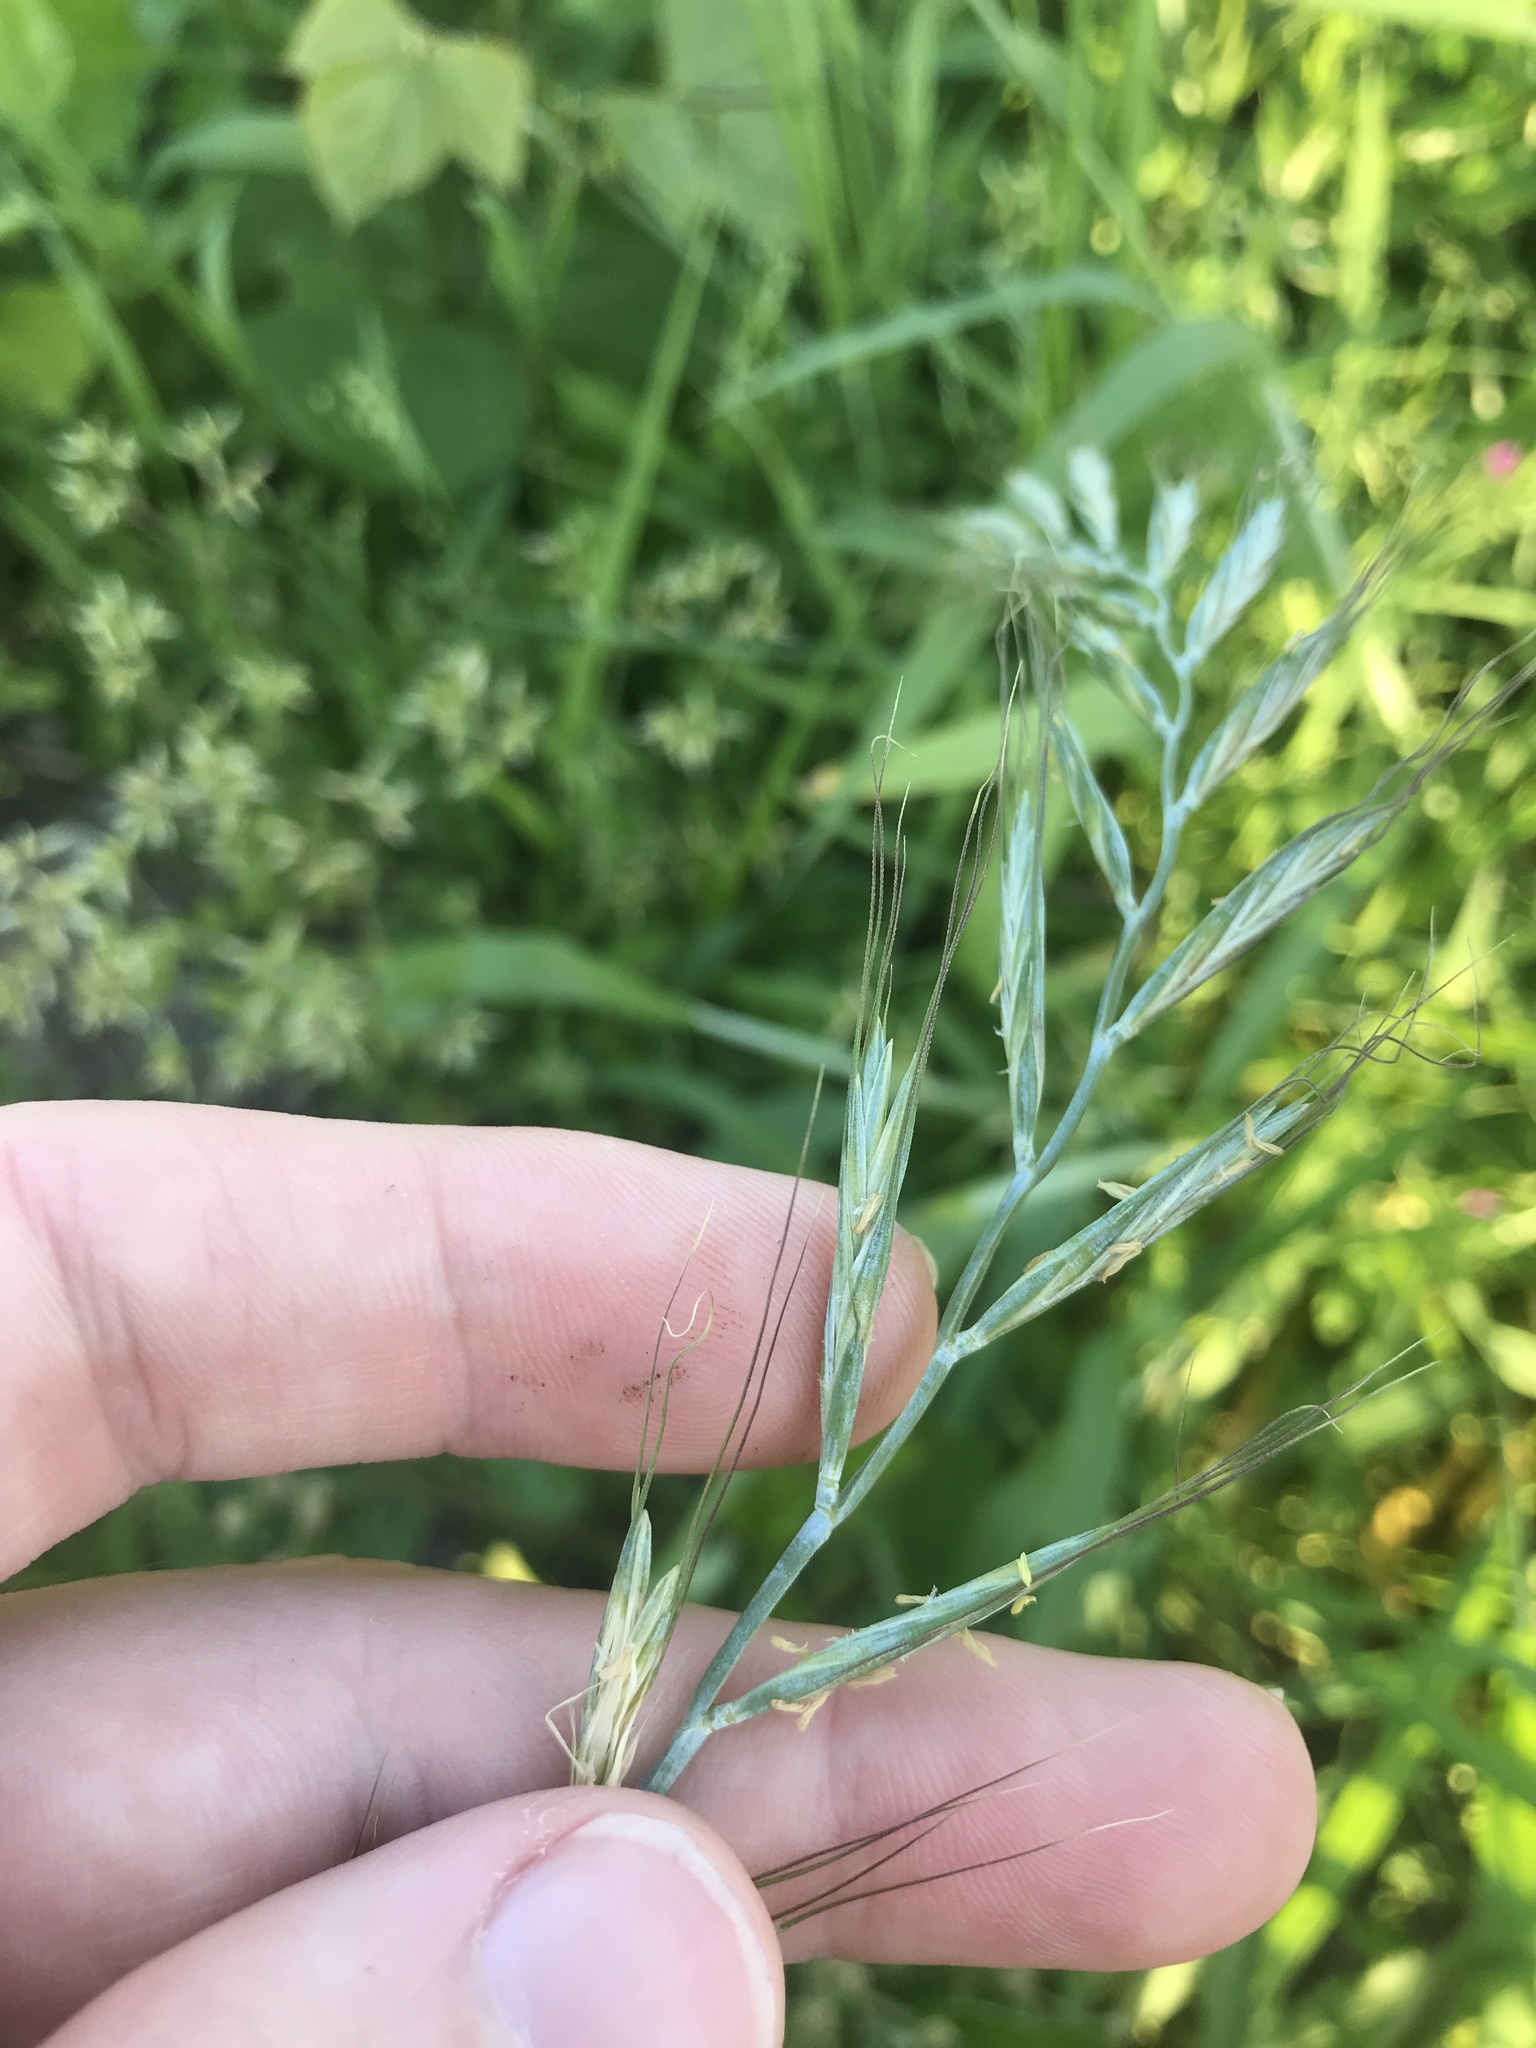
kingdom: Plantae
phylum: Tracheophyta
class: Liliopsida
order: Poales
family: Poaceae
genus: Elymus
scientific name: Elymus tsukushiensis
